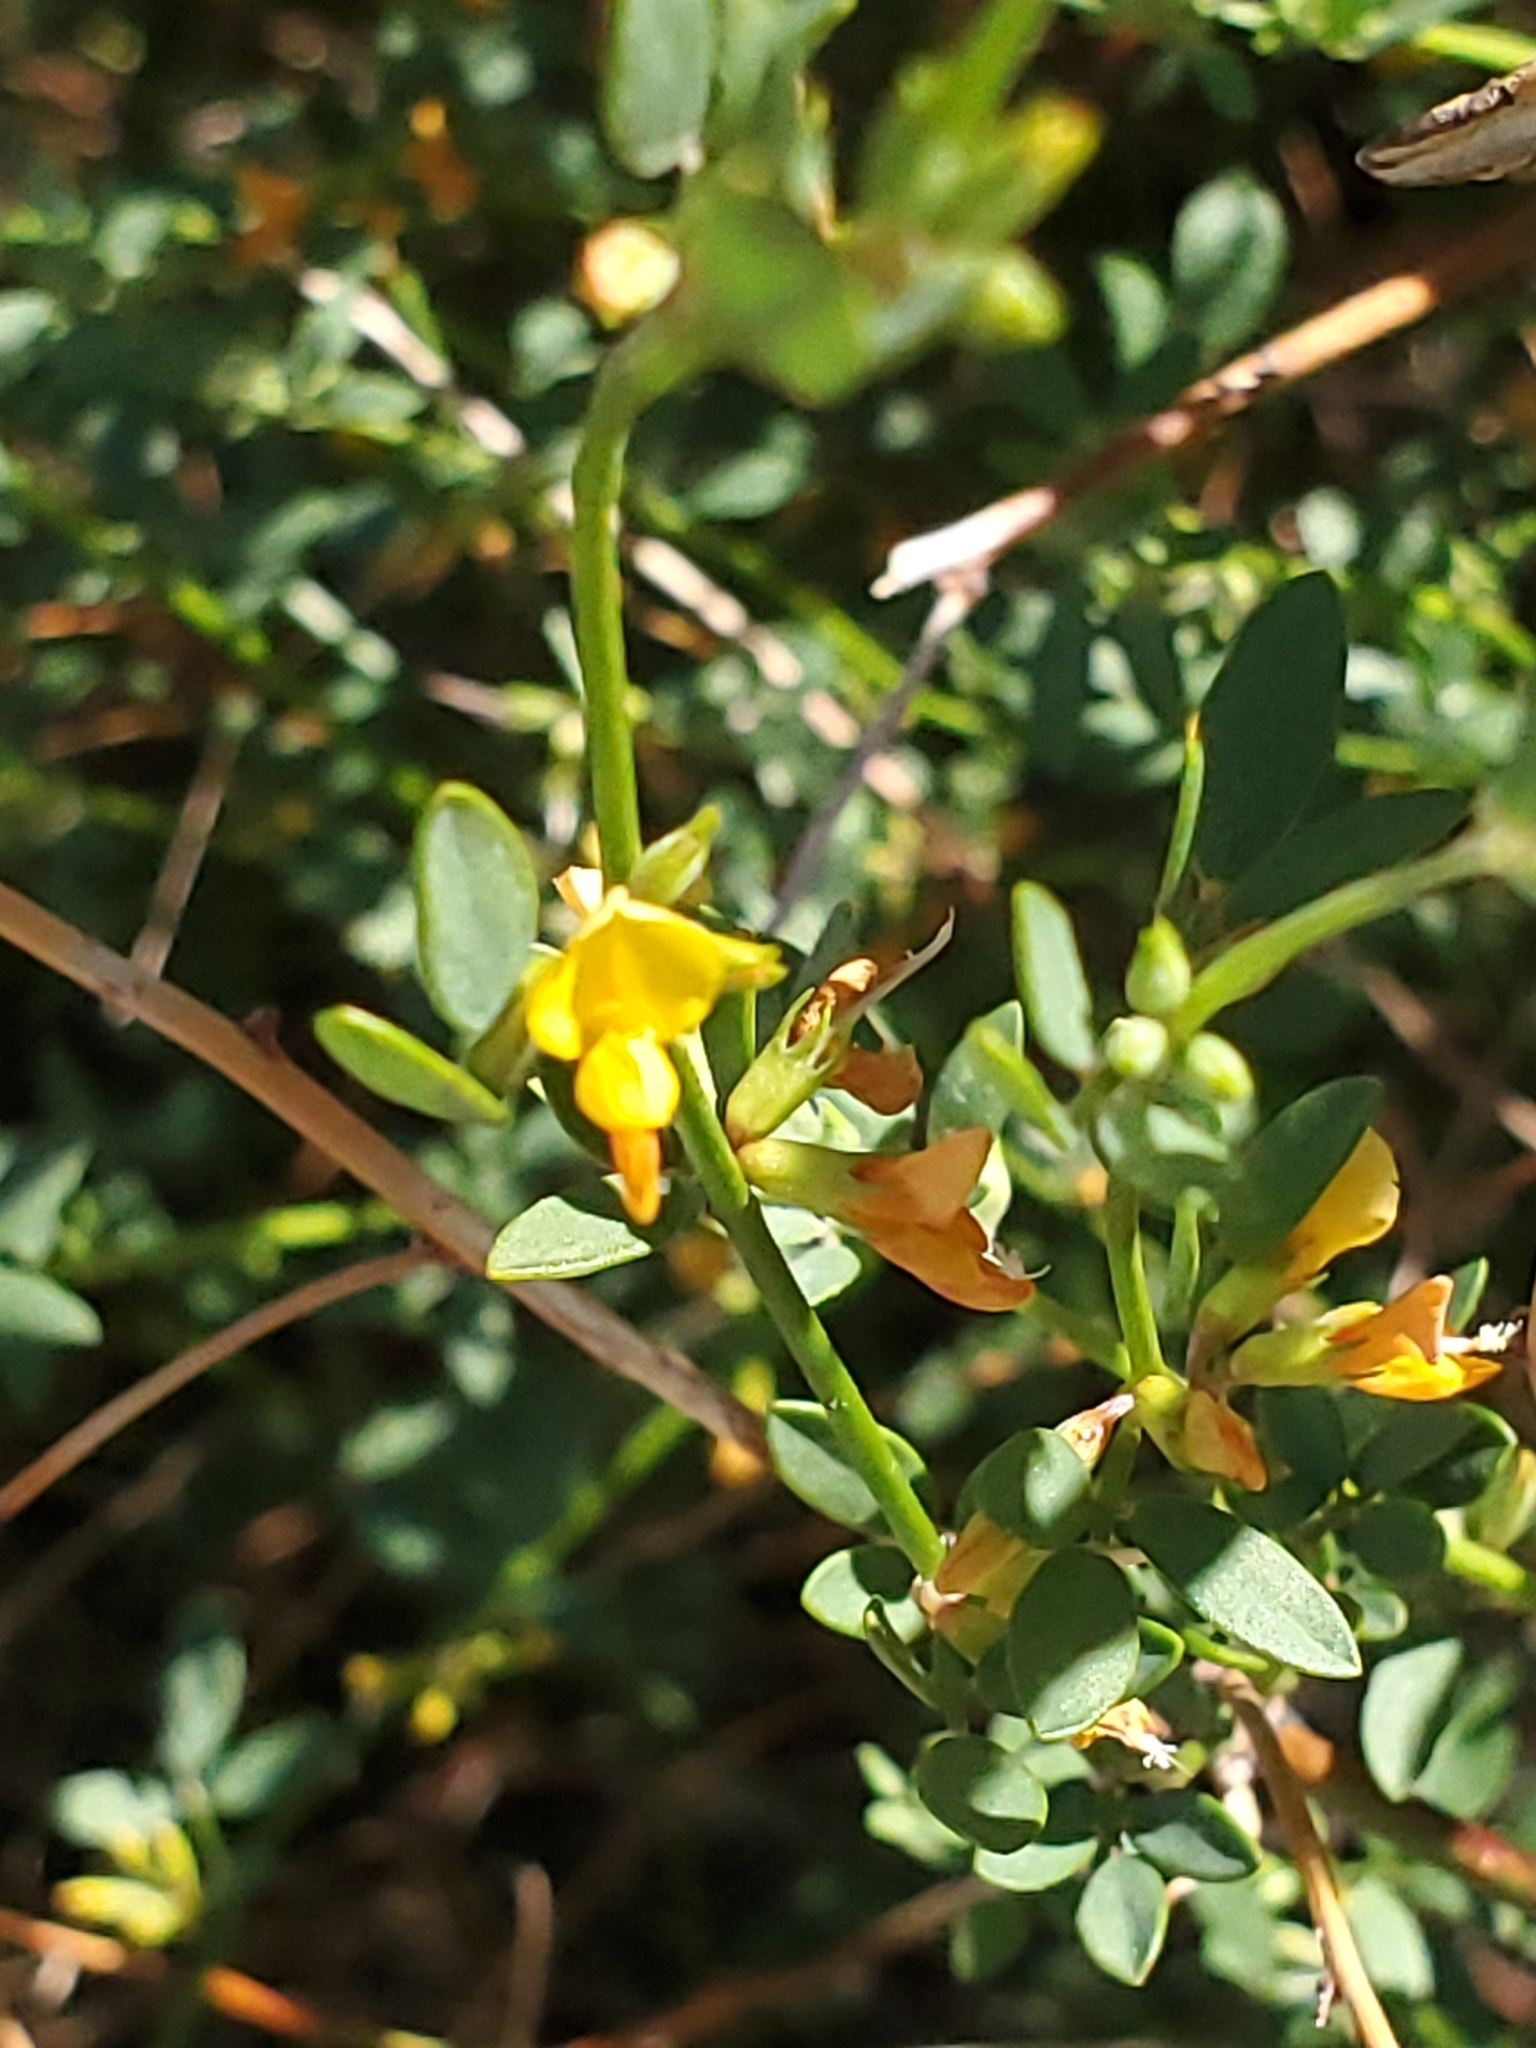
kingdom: Plantae
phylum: Tracheophyta
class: Magnoliopsida
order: Fabales
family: Fabaceae
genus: Acmispon
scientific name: Acmispon glaber
